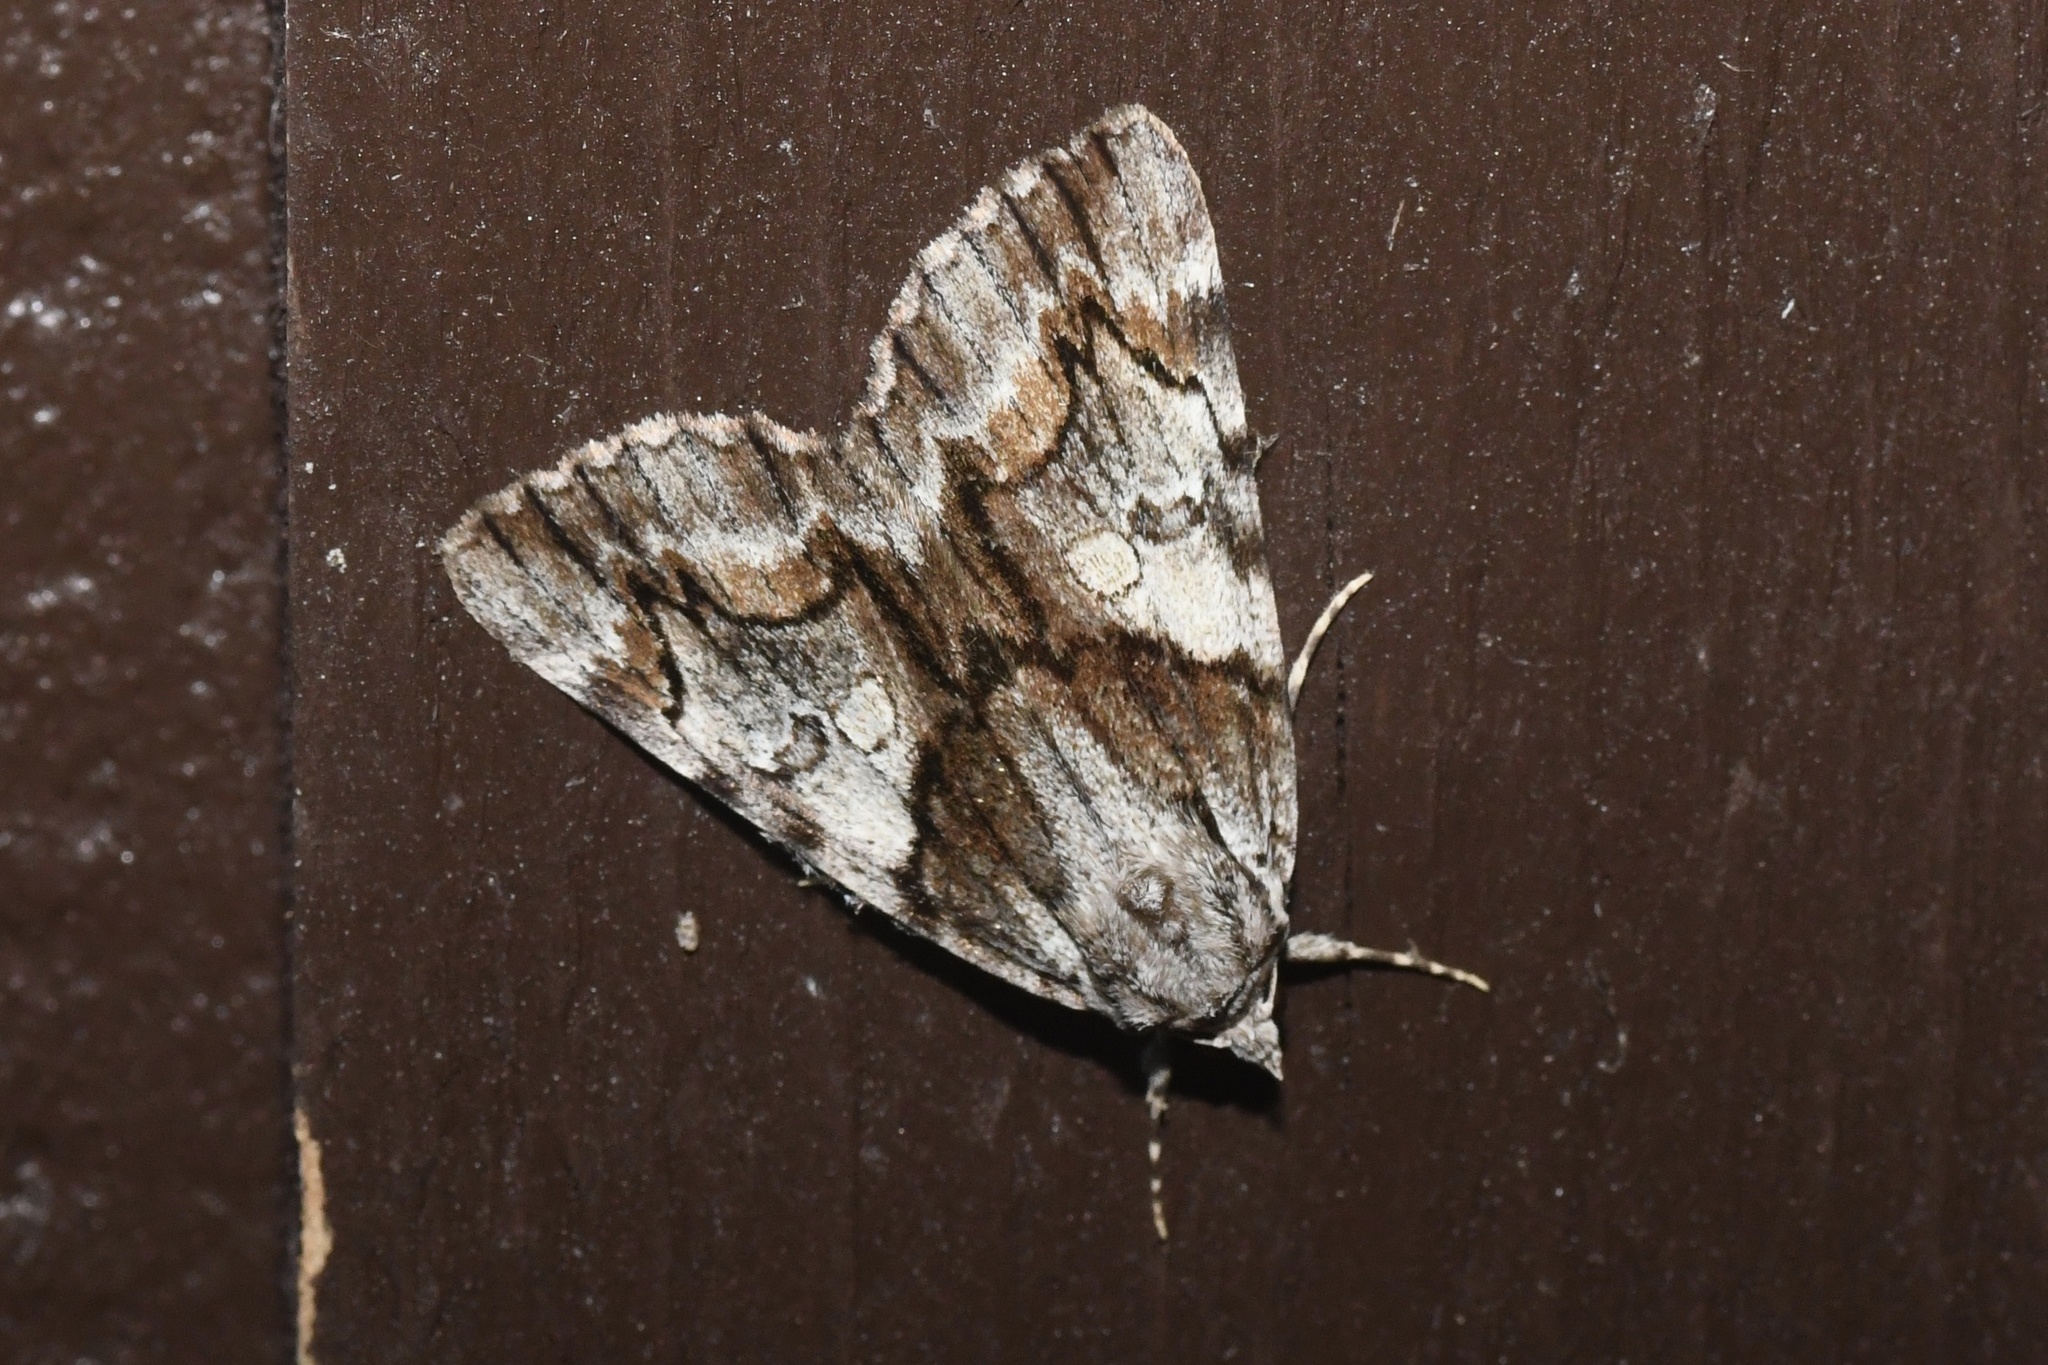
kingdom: Animalia
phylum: Arthropoda
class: Insecta
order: Lepidoptera
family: Erebidae
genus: Catocala
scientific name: Catocala blandula
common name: Charming underwing
